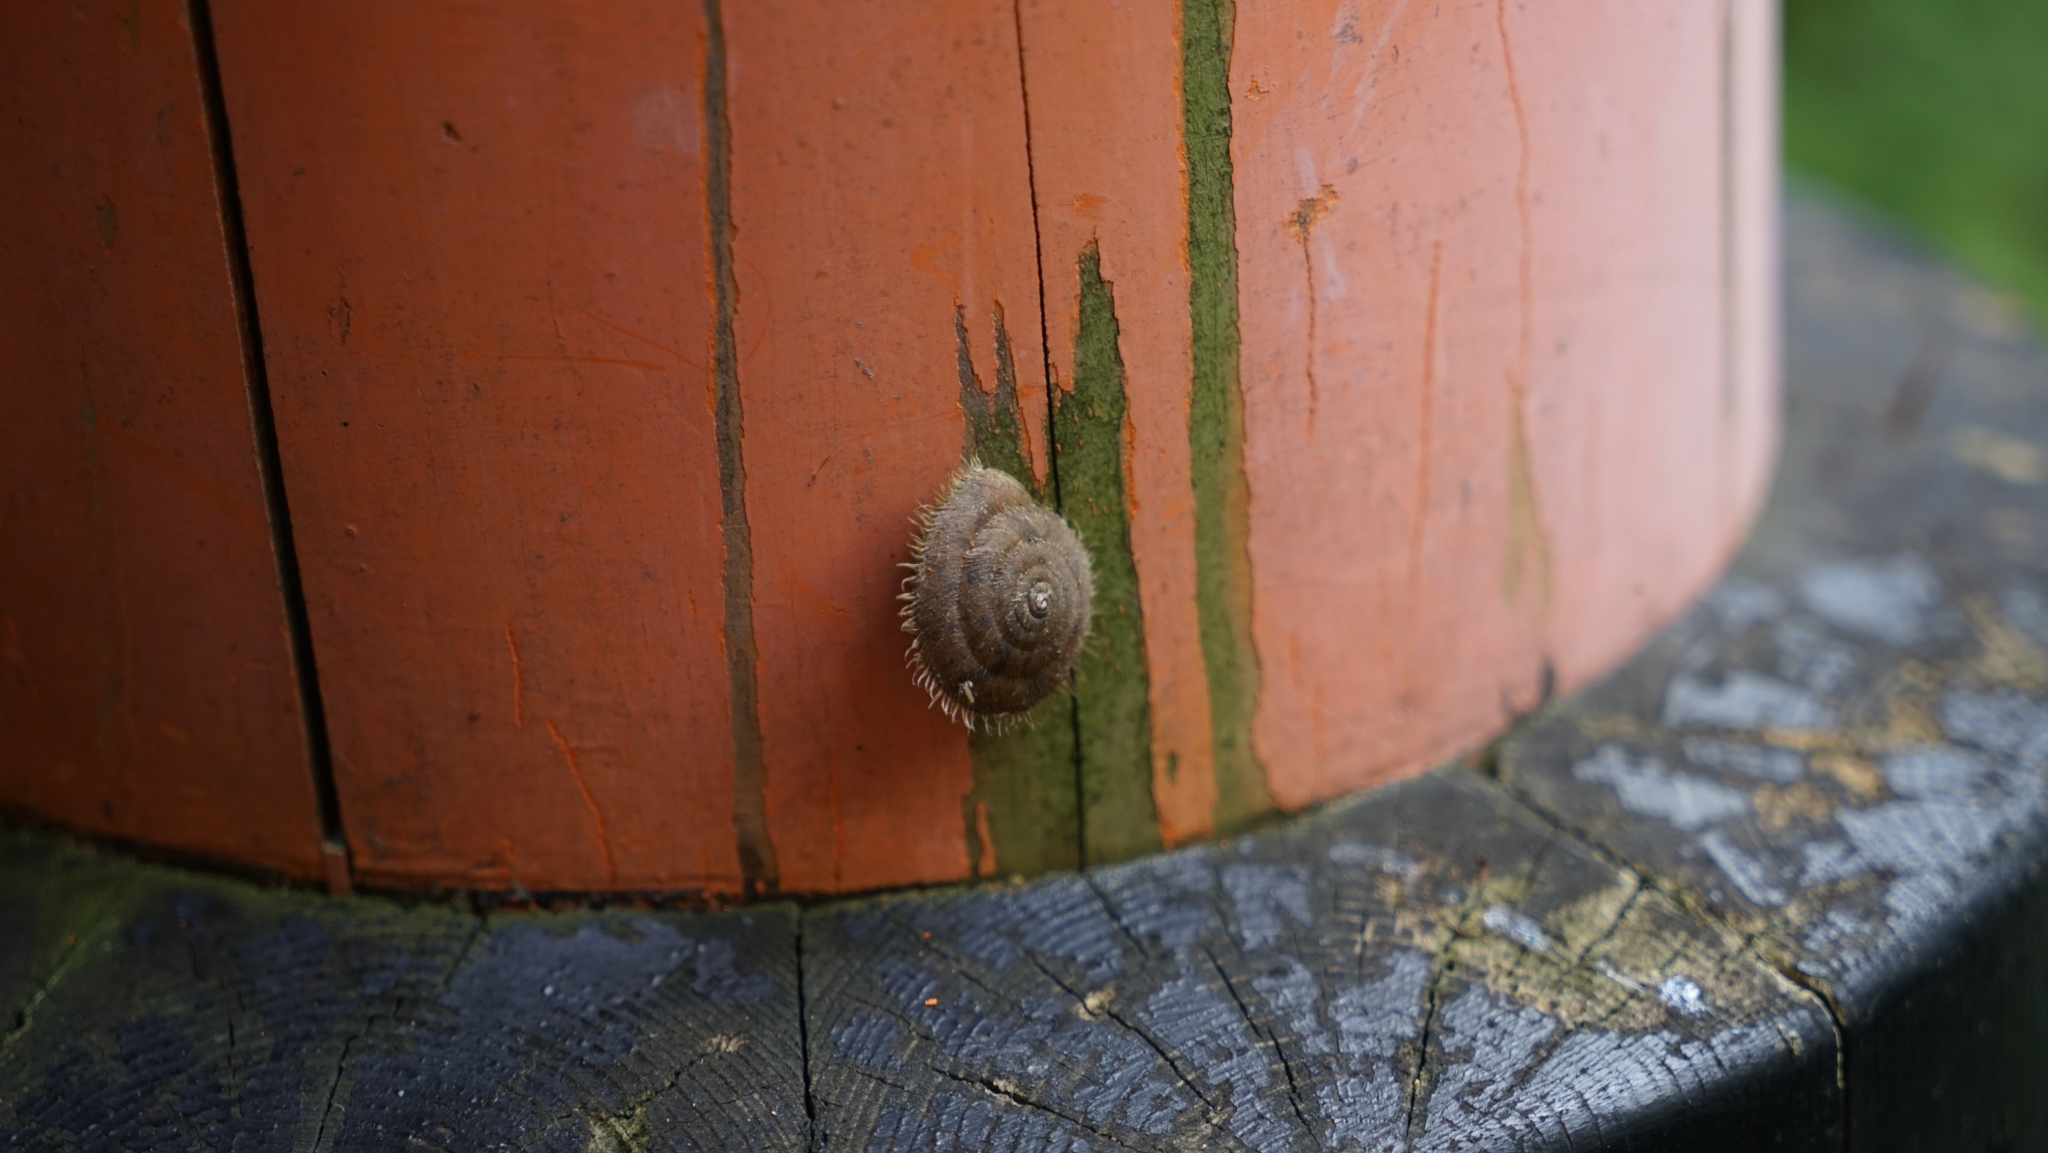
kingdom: Animalia
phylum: Mollusca
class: Gastropoda
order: Stylommatophora
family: Camaenidae
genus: Plectotropis
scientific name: Plectotropis vulgivaga
